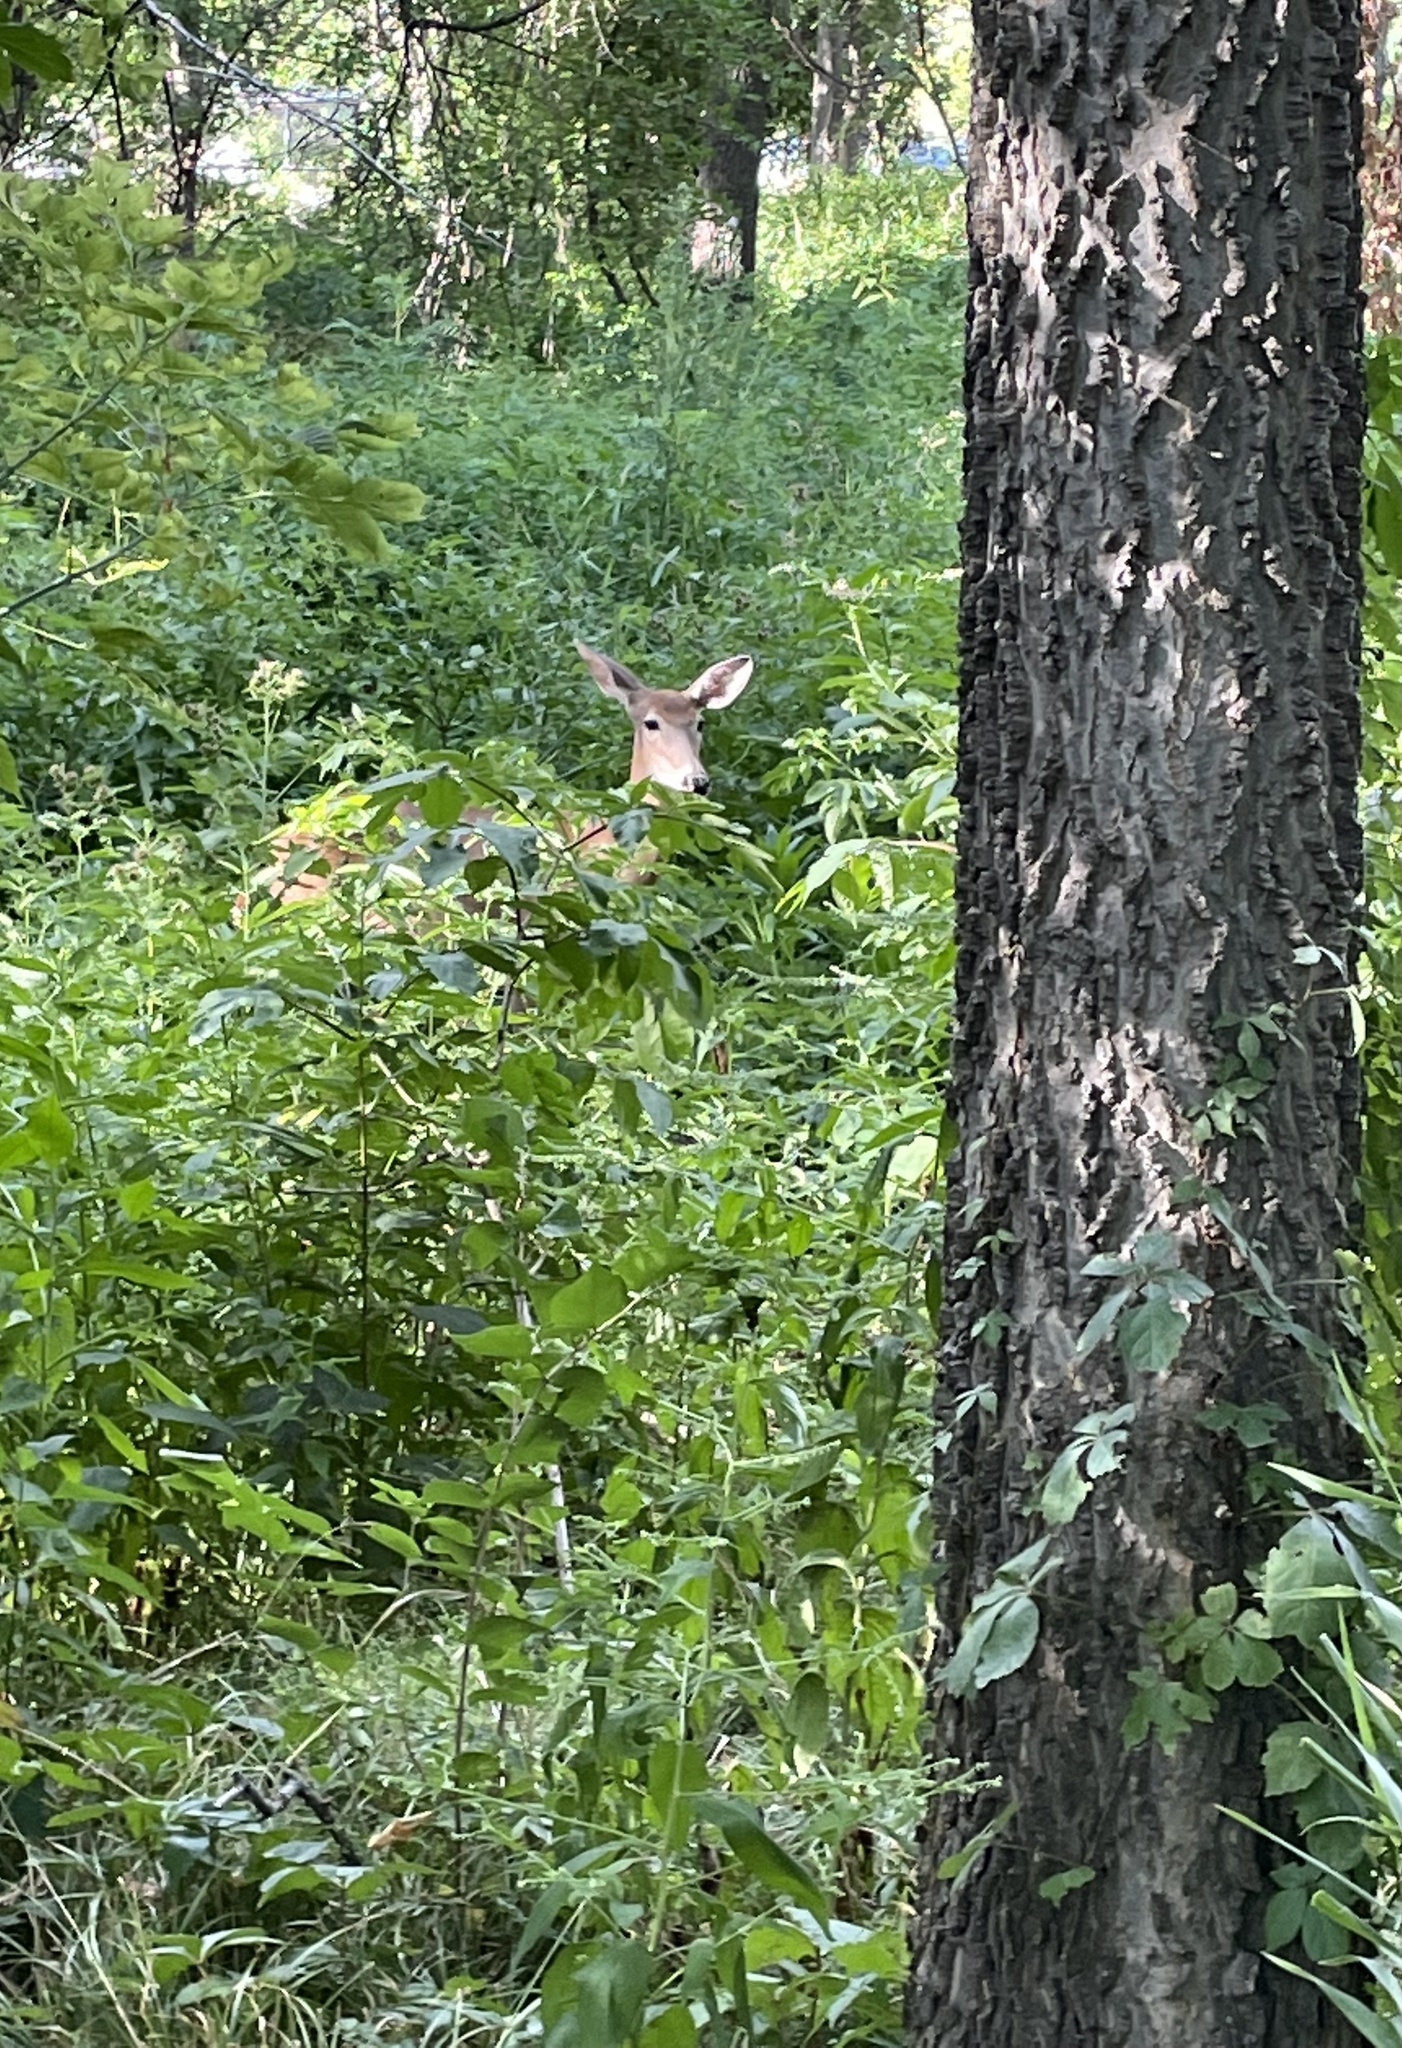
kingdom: Animalia
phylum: Chordata
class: Mammalia
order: Artiodactyla
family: Cervidae
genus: Odocoileus
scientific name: Odocoileus virginianus
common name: White-tailed deer
